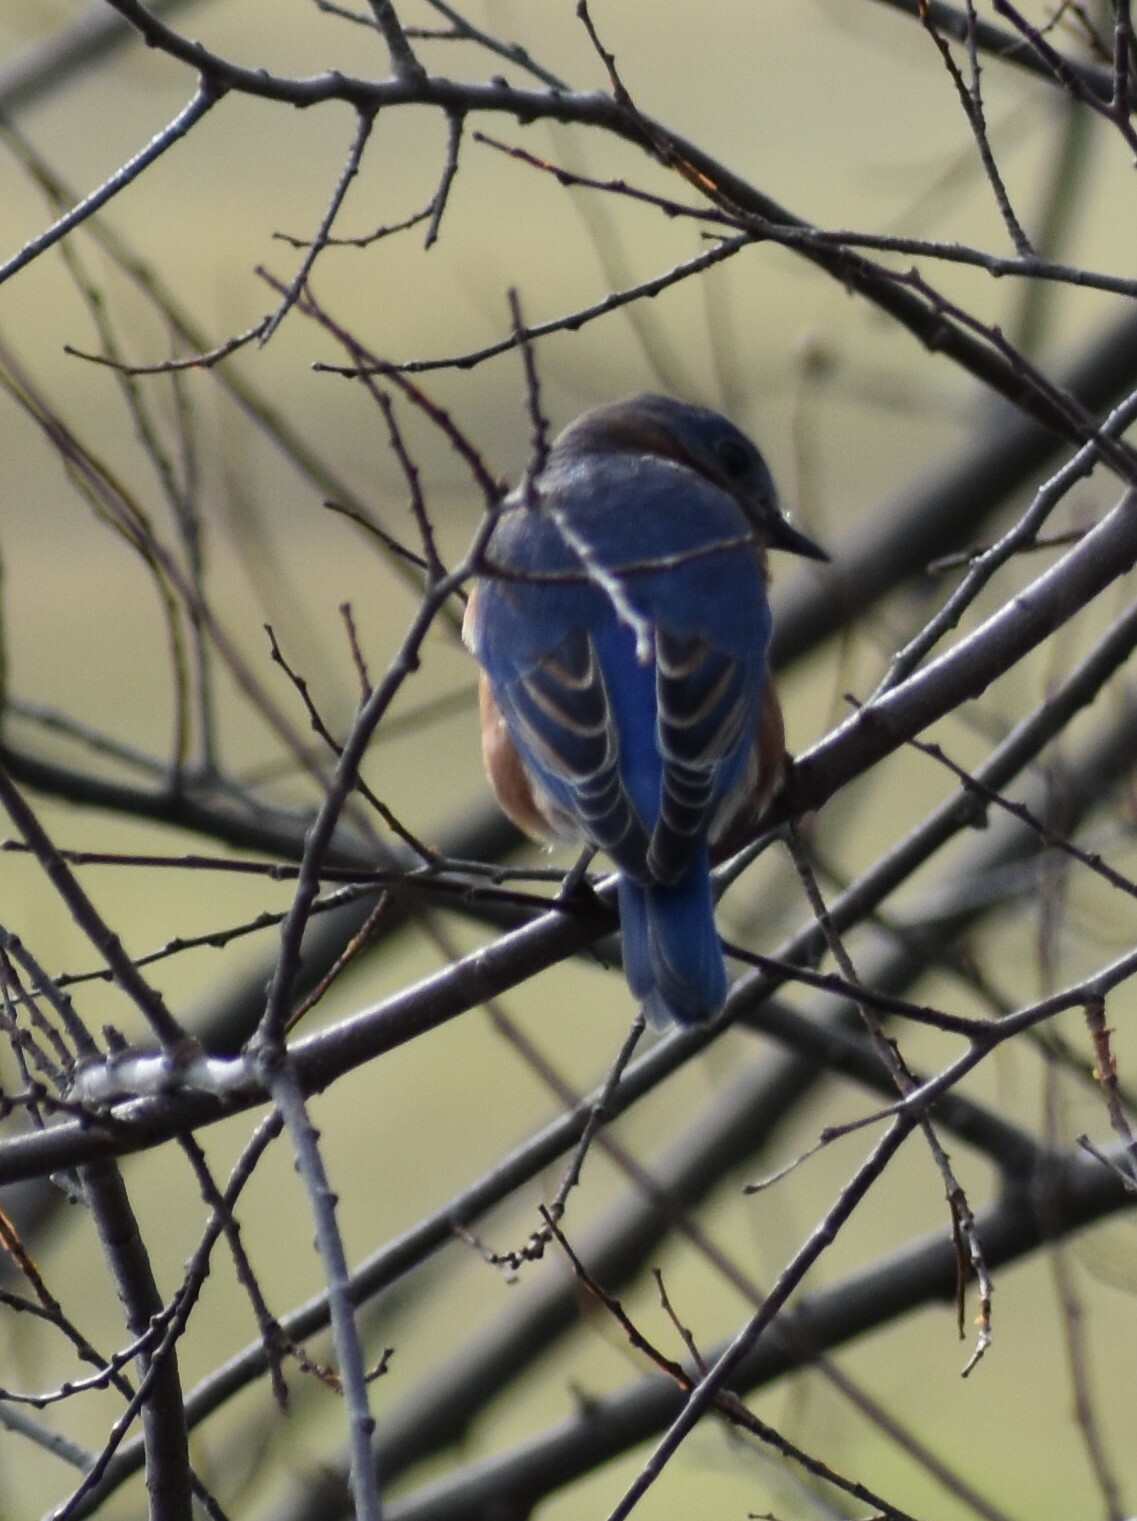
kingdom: Animalia
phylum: Chordata
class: Aves
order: Passeriformes
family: Turdidae
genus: Sialia
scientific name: Sialia sialis
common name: Eastern bluebird
